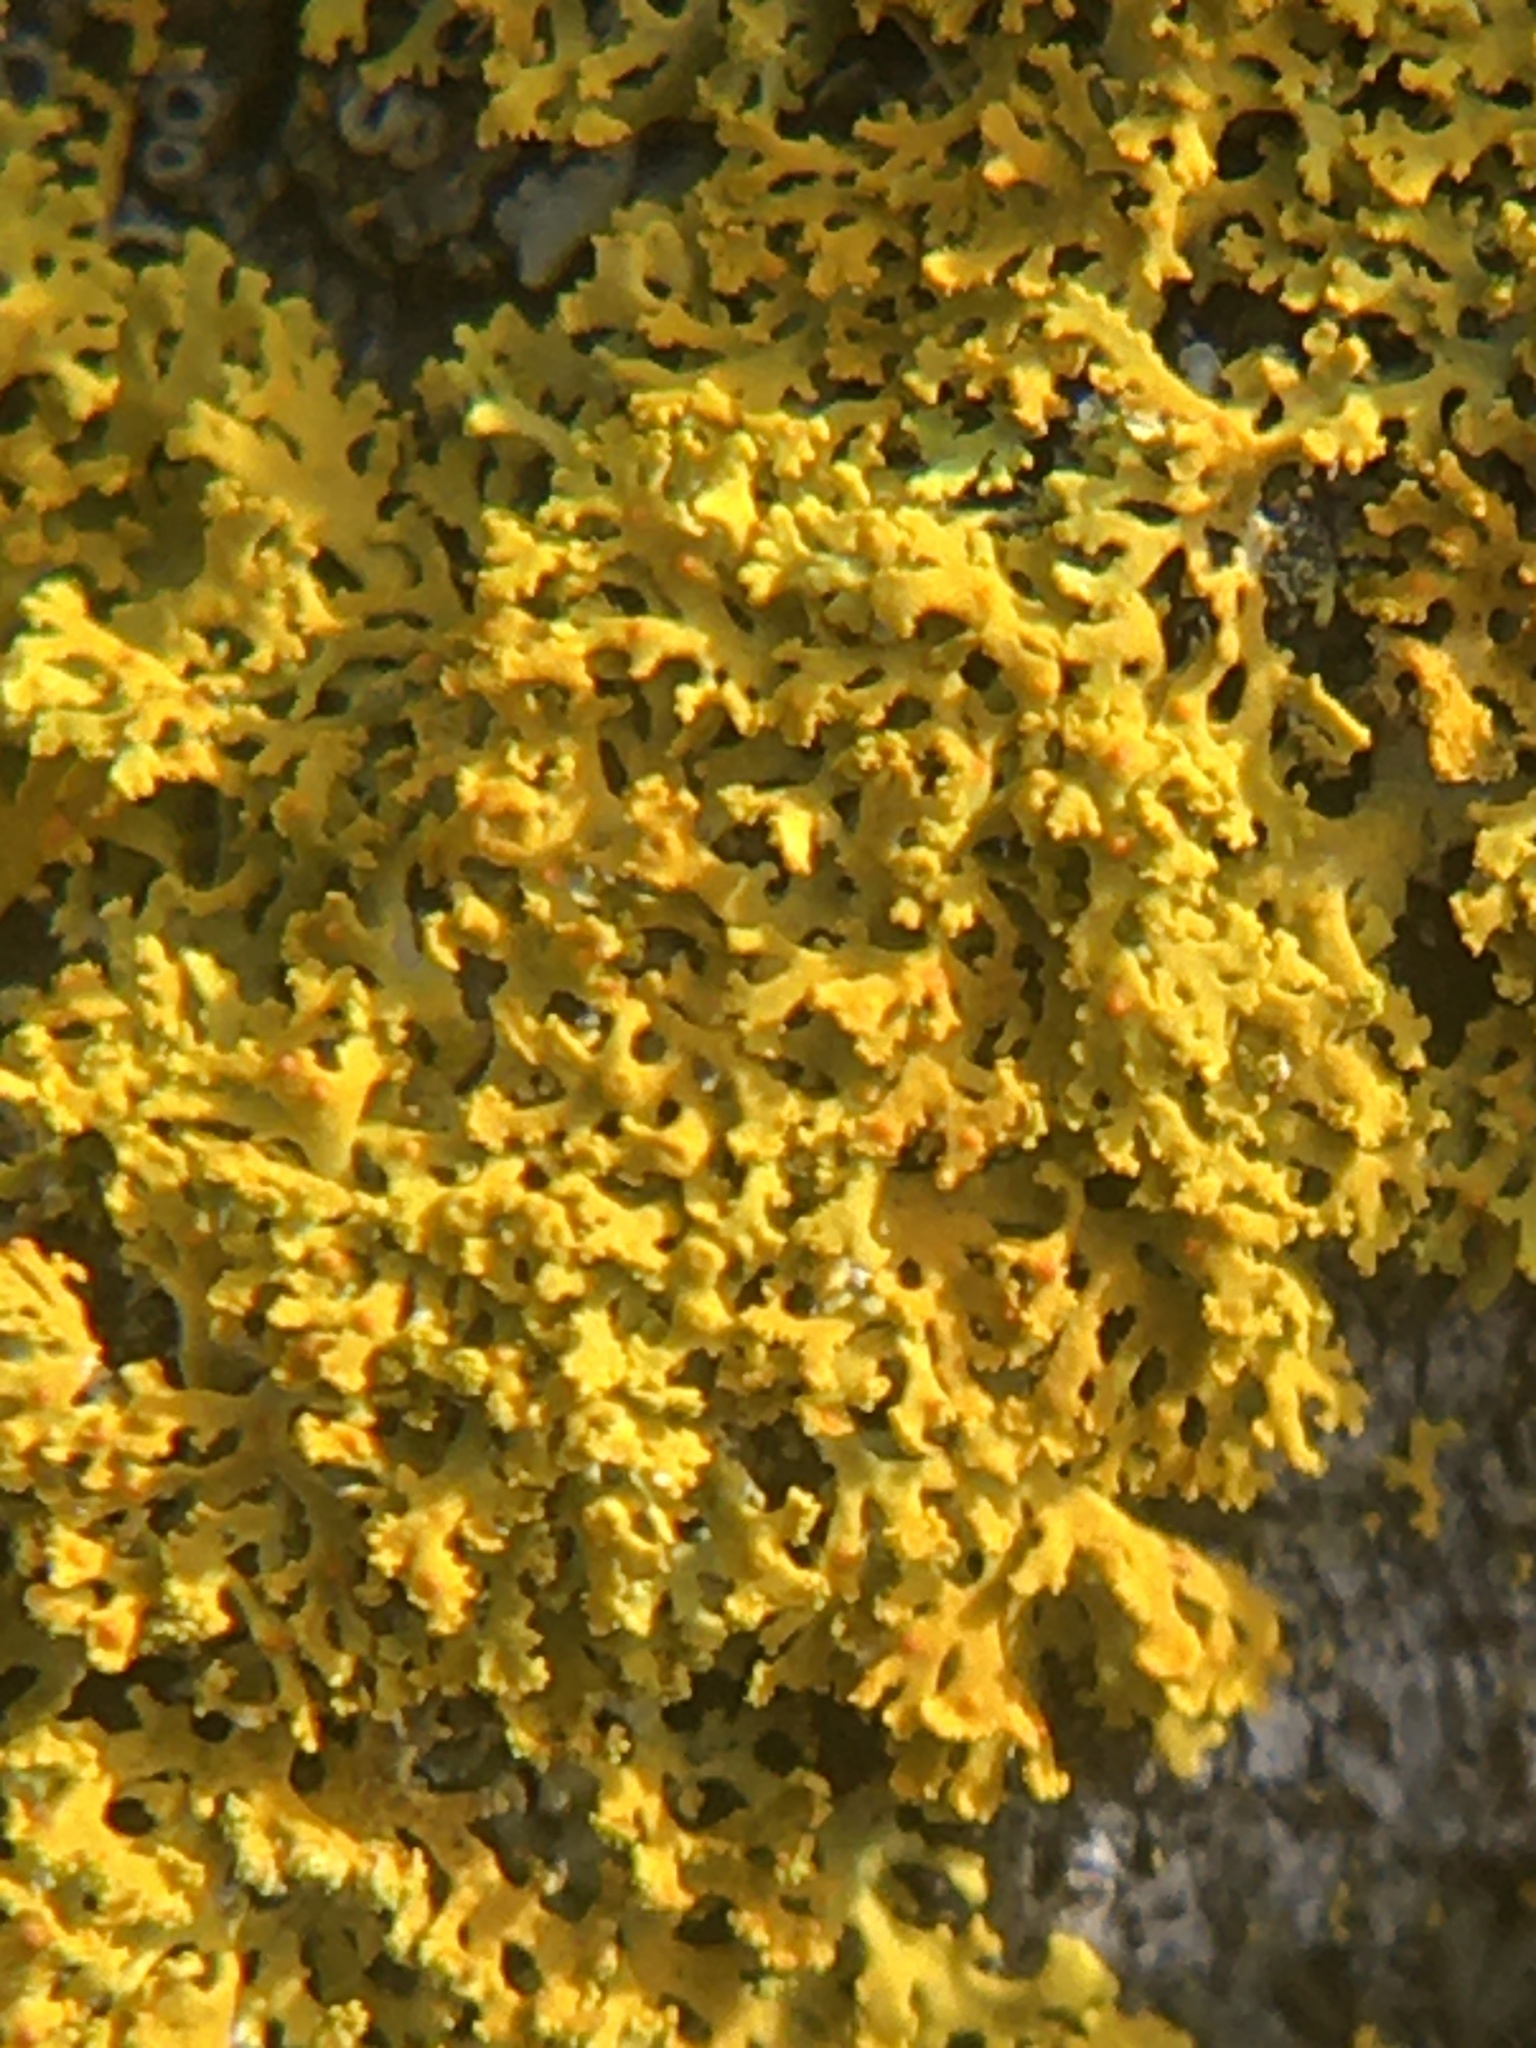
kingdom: Fungi
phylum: Ascomycota
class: Lecanoromycetes
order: Teloschistales
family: Teloschistaceae
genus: Gallowayella
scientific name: Gallowayella weberi
